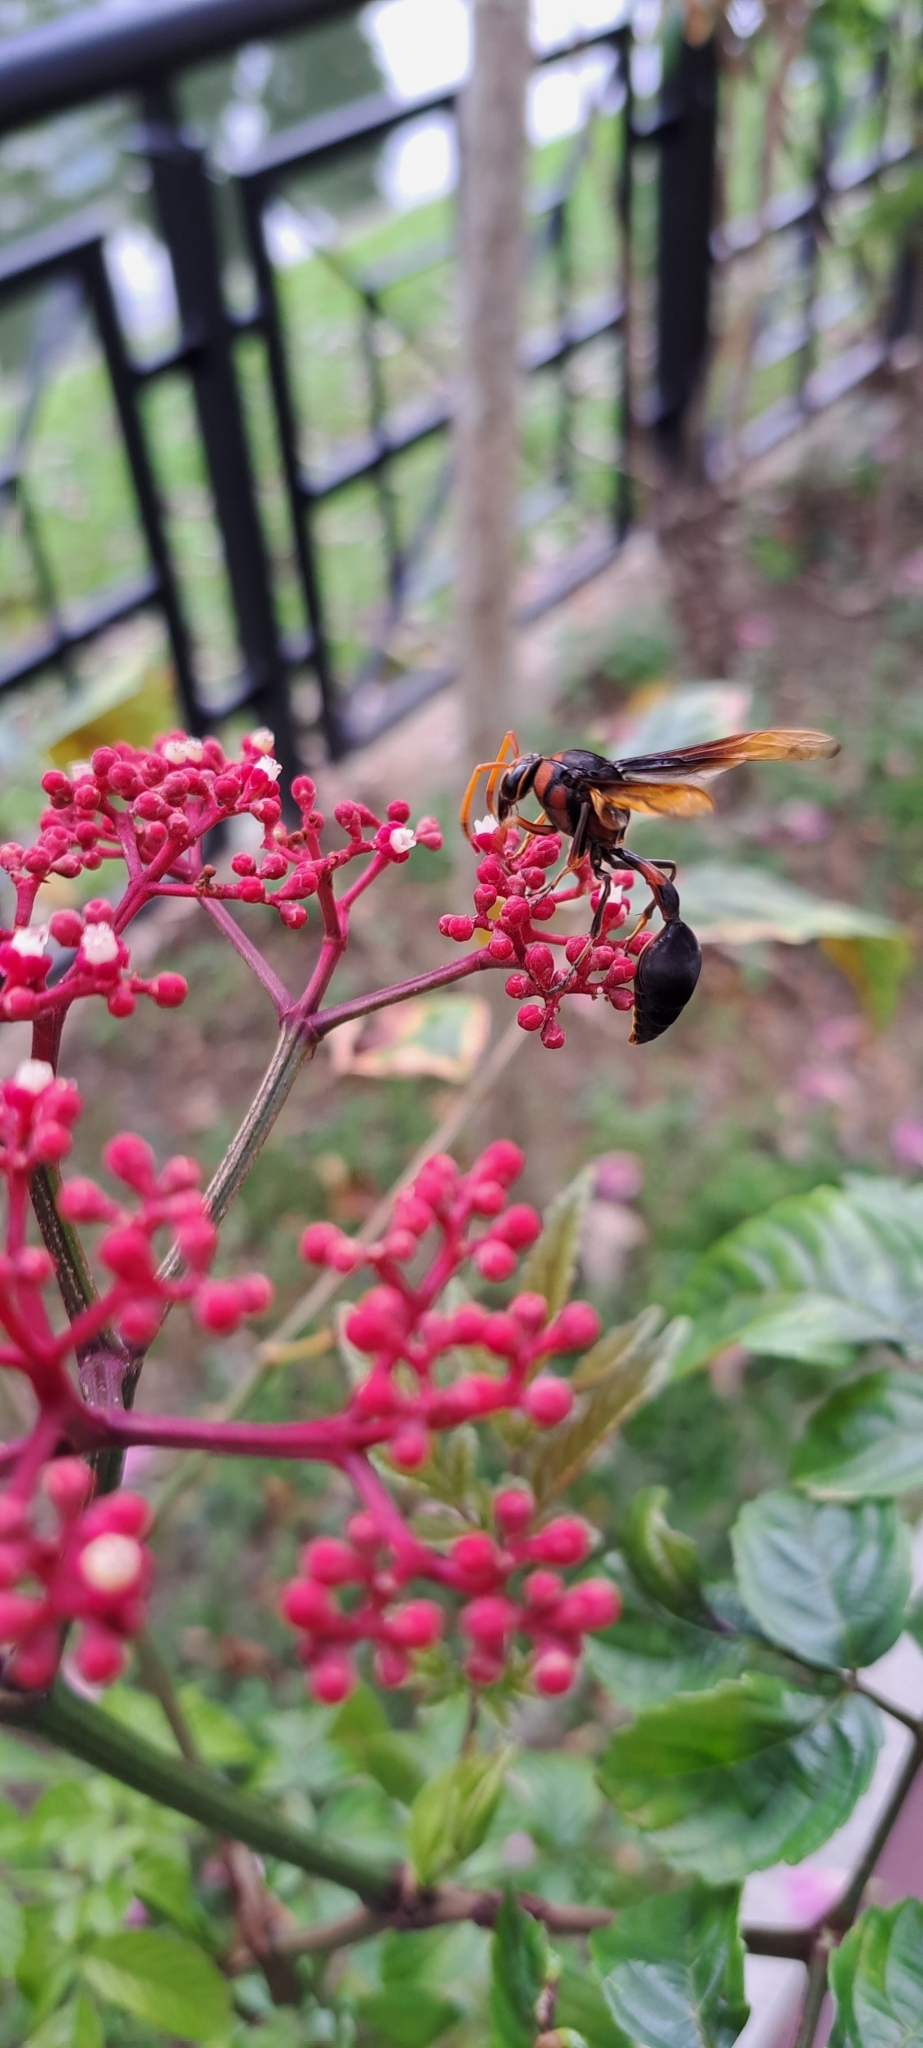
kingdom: Animalia
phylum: Arthropoda
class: Insecta
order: Hymenoptera
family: Eumenidae
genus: Delta
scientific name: Delta pyriforme
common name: Wasp
